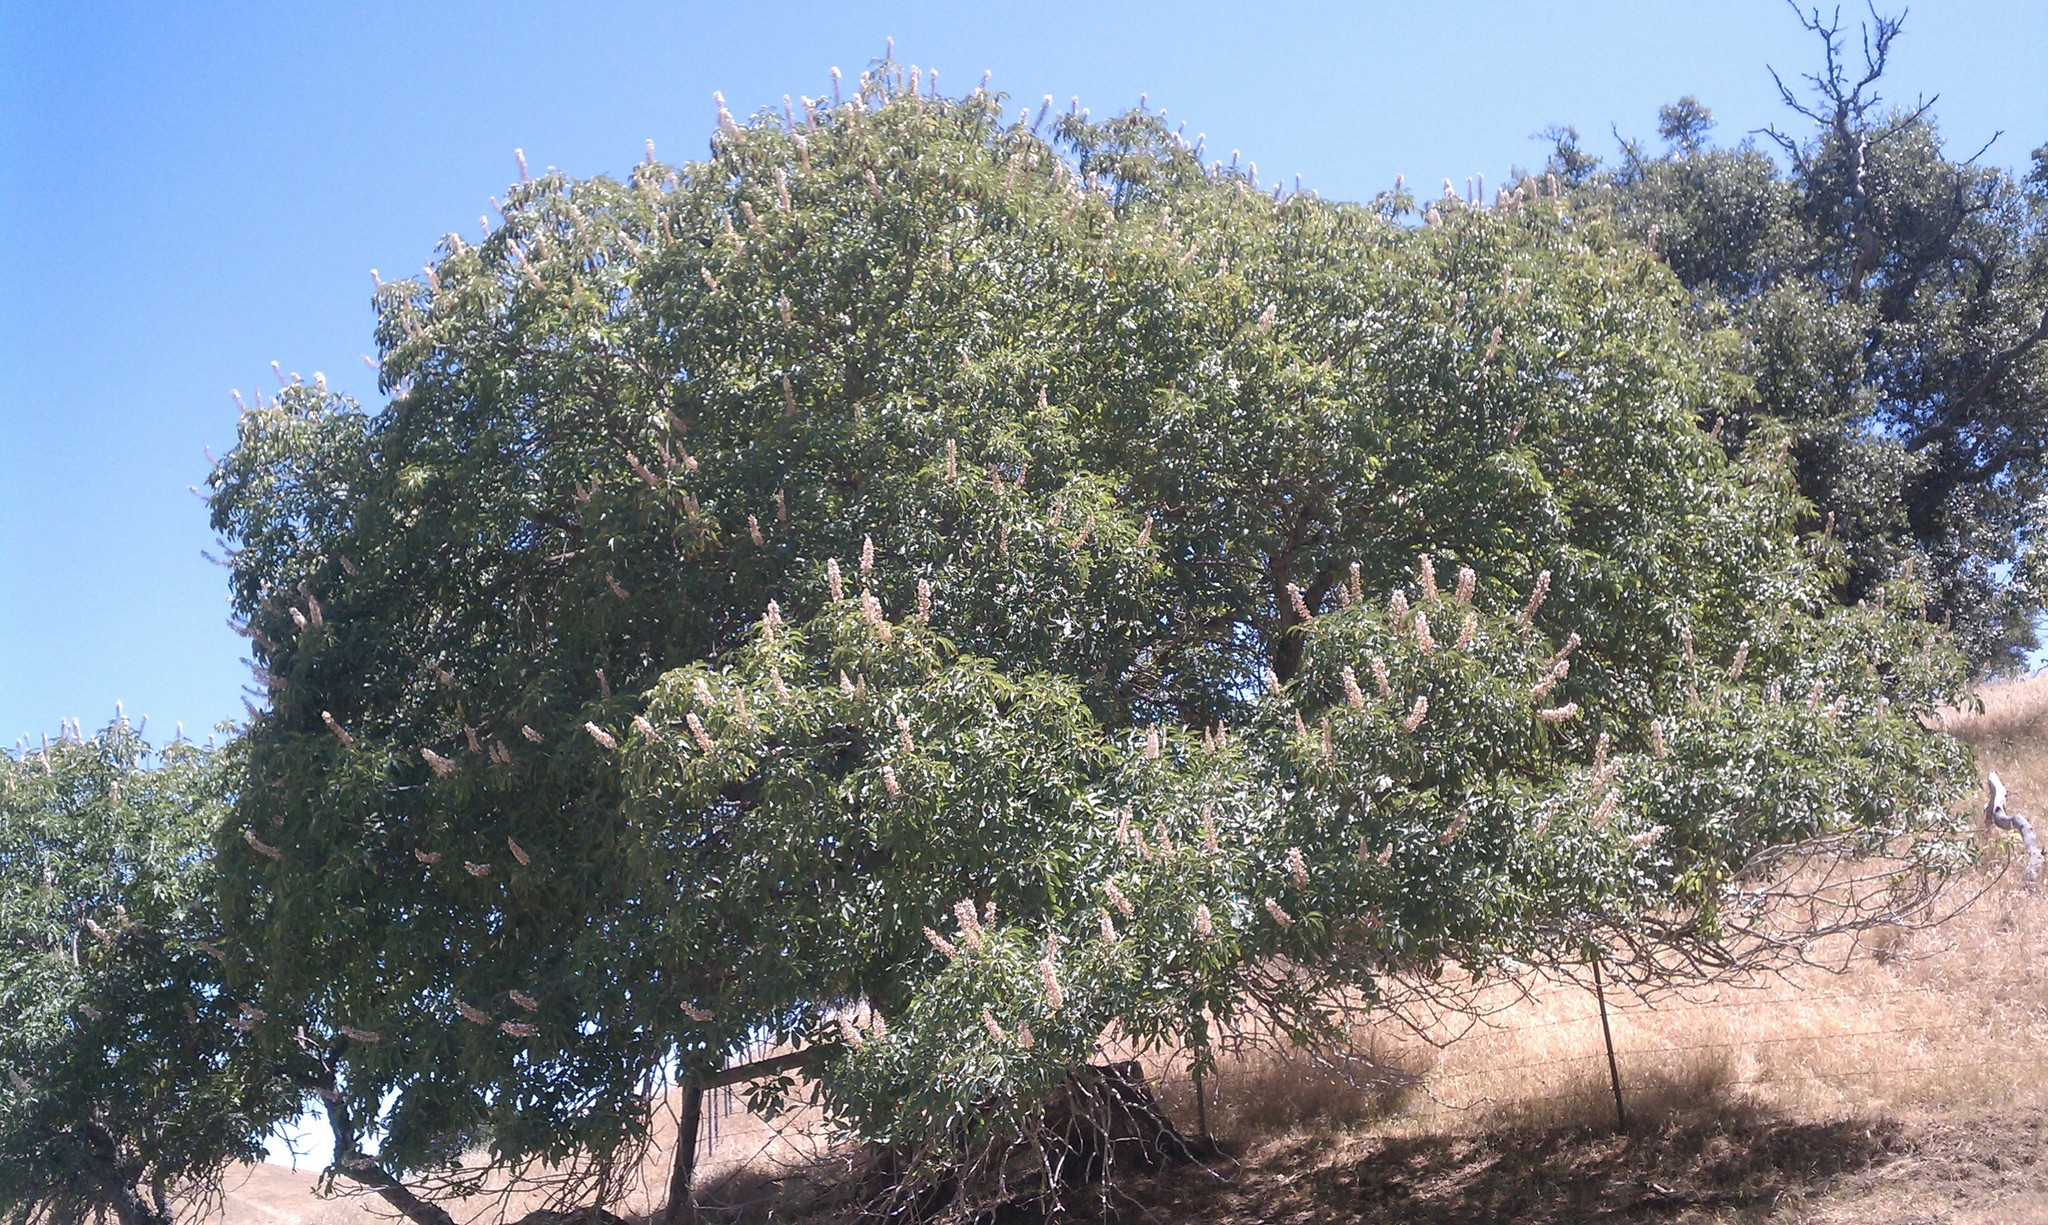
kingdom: Plantae
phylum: Tracheophyta
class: Magnoliopsida
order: Sapindales
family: Sapindaceae
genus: Aesculus
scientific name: Aesculus californica
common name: California buckeye
